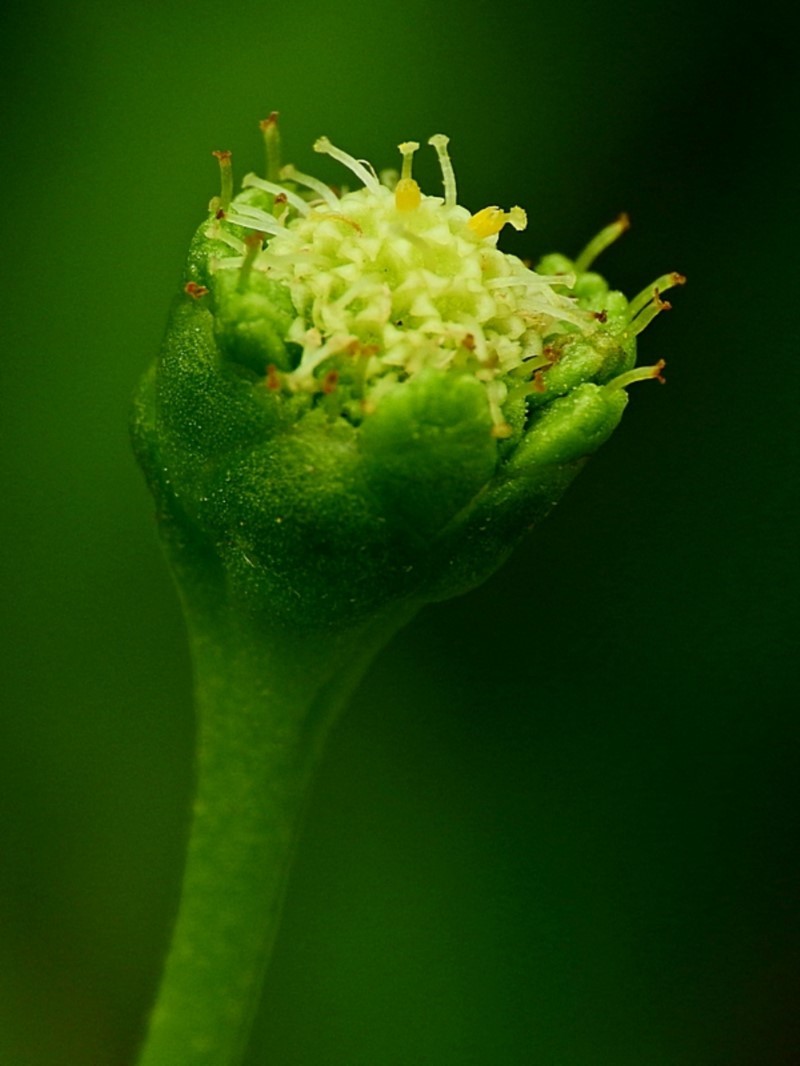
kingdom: Plantae
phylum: Tracheophyta
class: Magnoliopsida
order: Asterales
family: Asteraceae
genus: Leptinella
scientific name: Leptinella longipes
